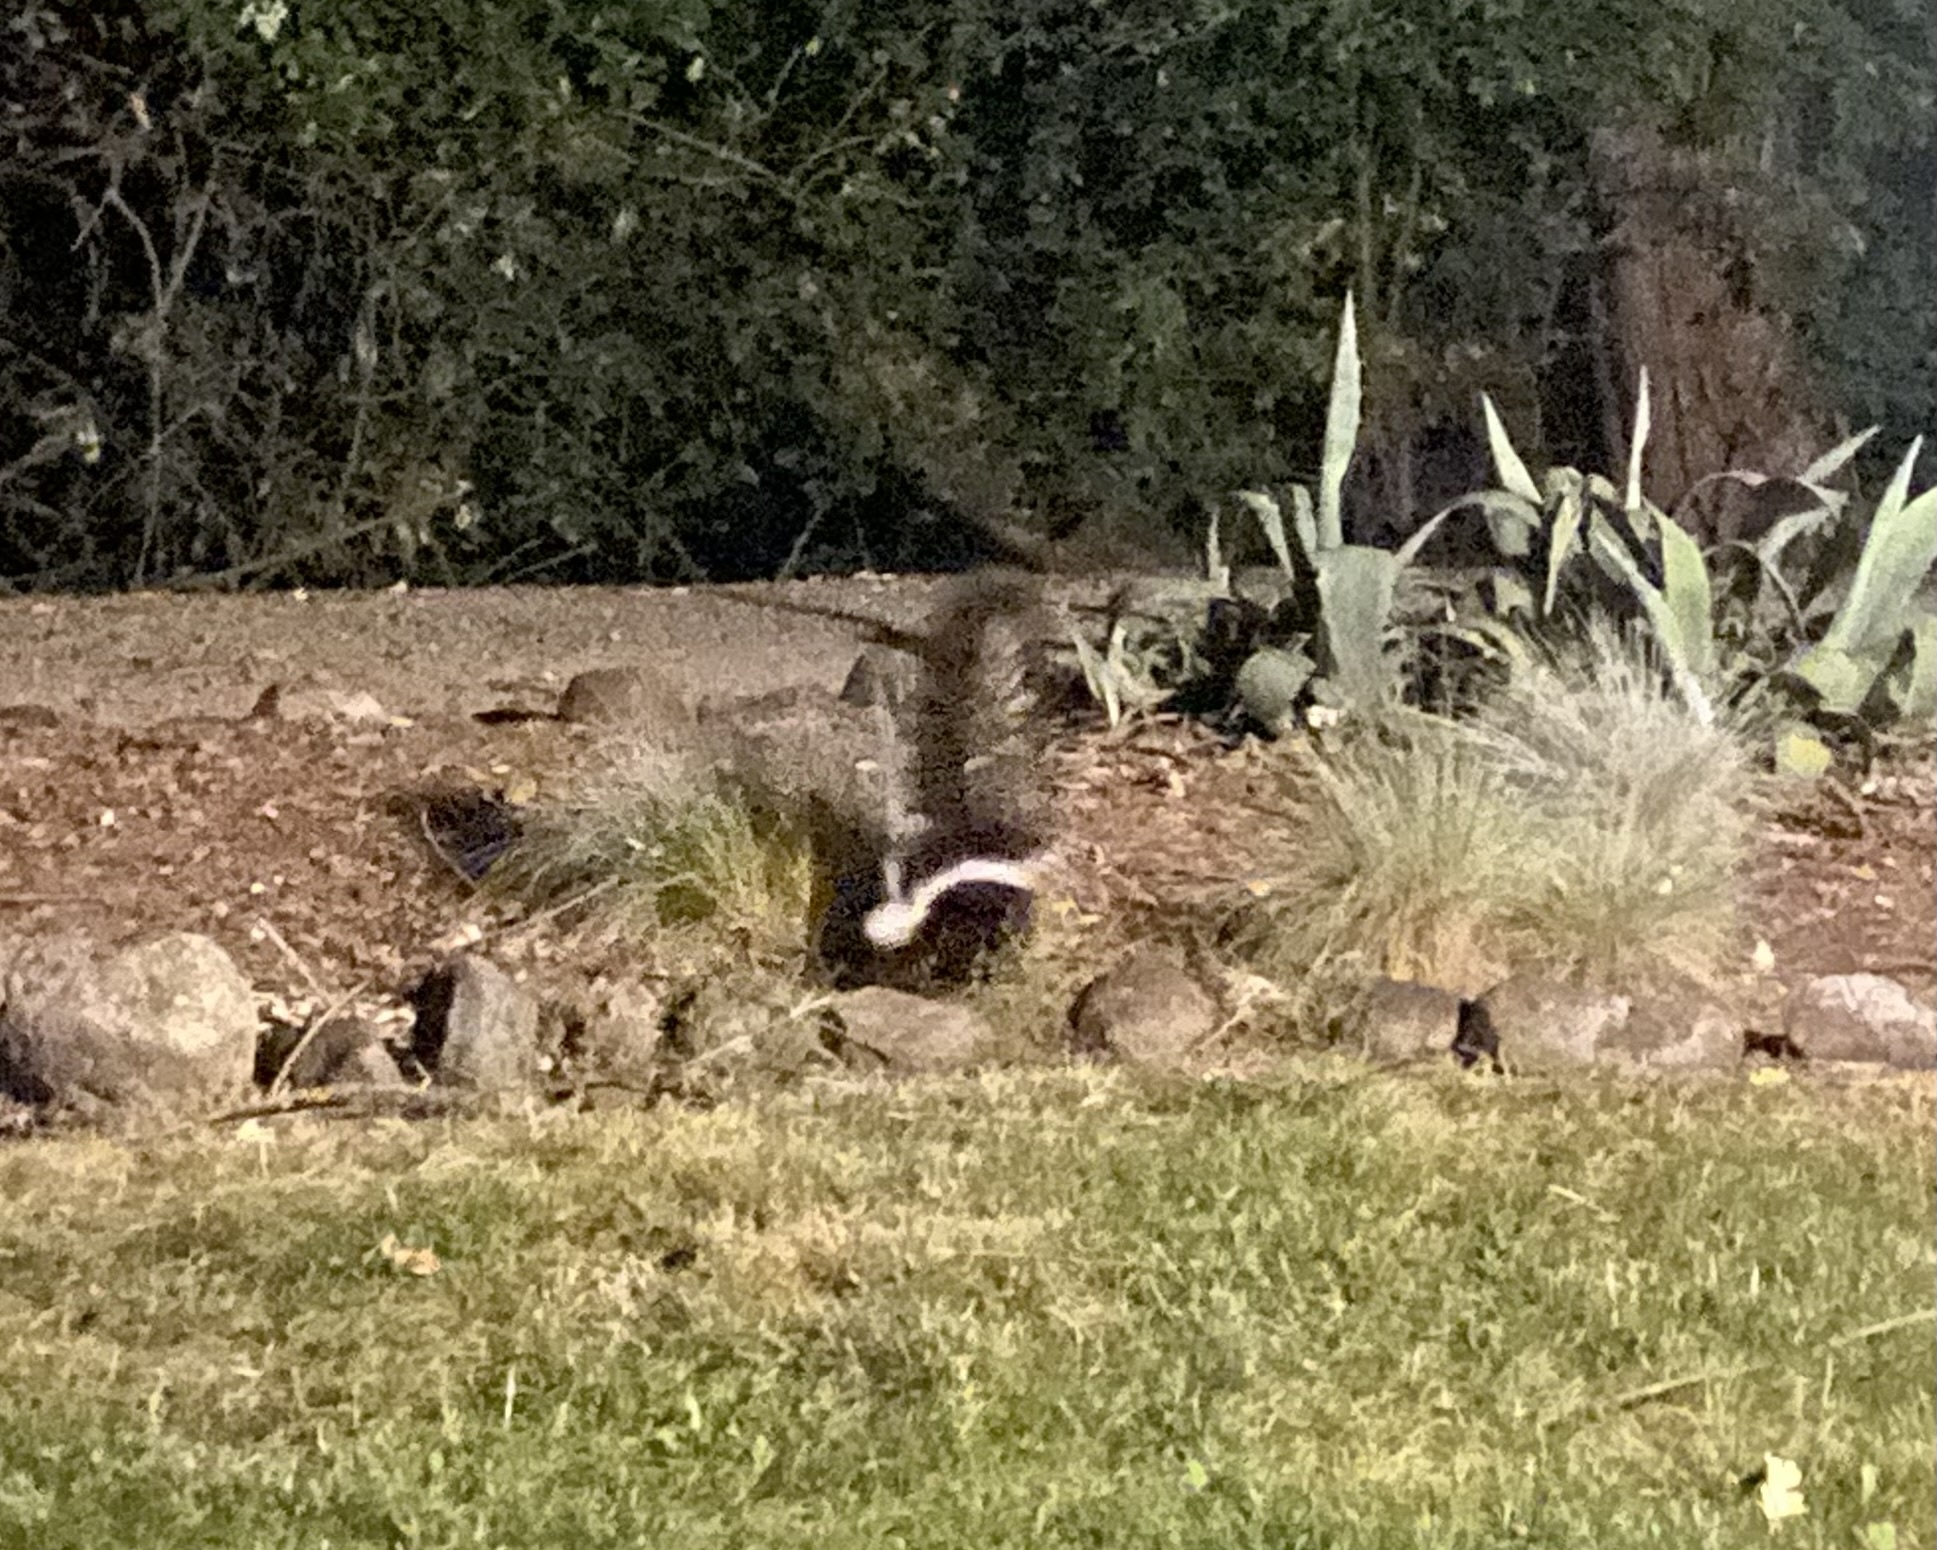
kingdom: Animalia
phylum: Chordata
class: Mammalia
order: Carnivora
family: Mephitidae
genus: Mephitis
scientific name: Mephitis mephitis
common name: Striped skunk
